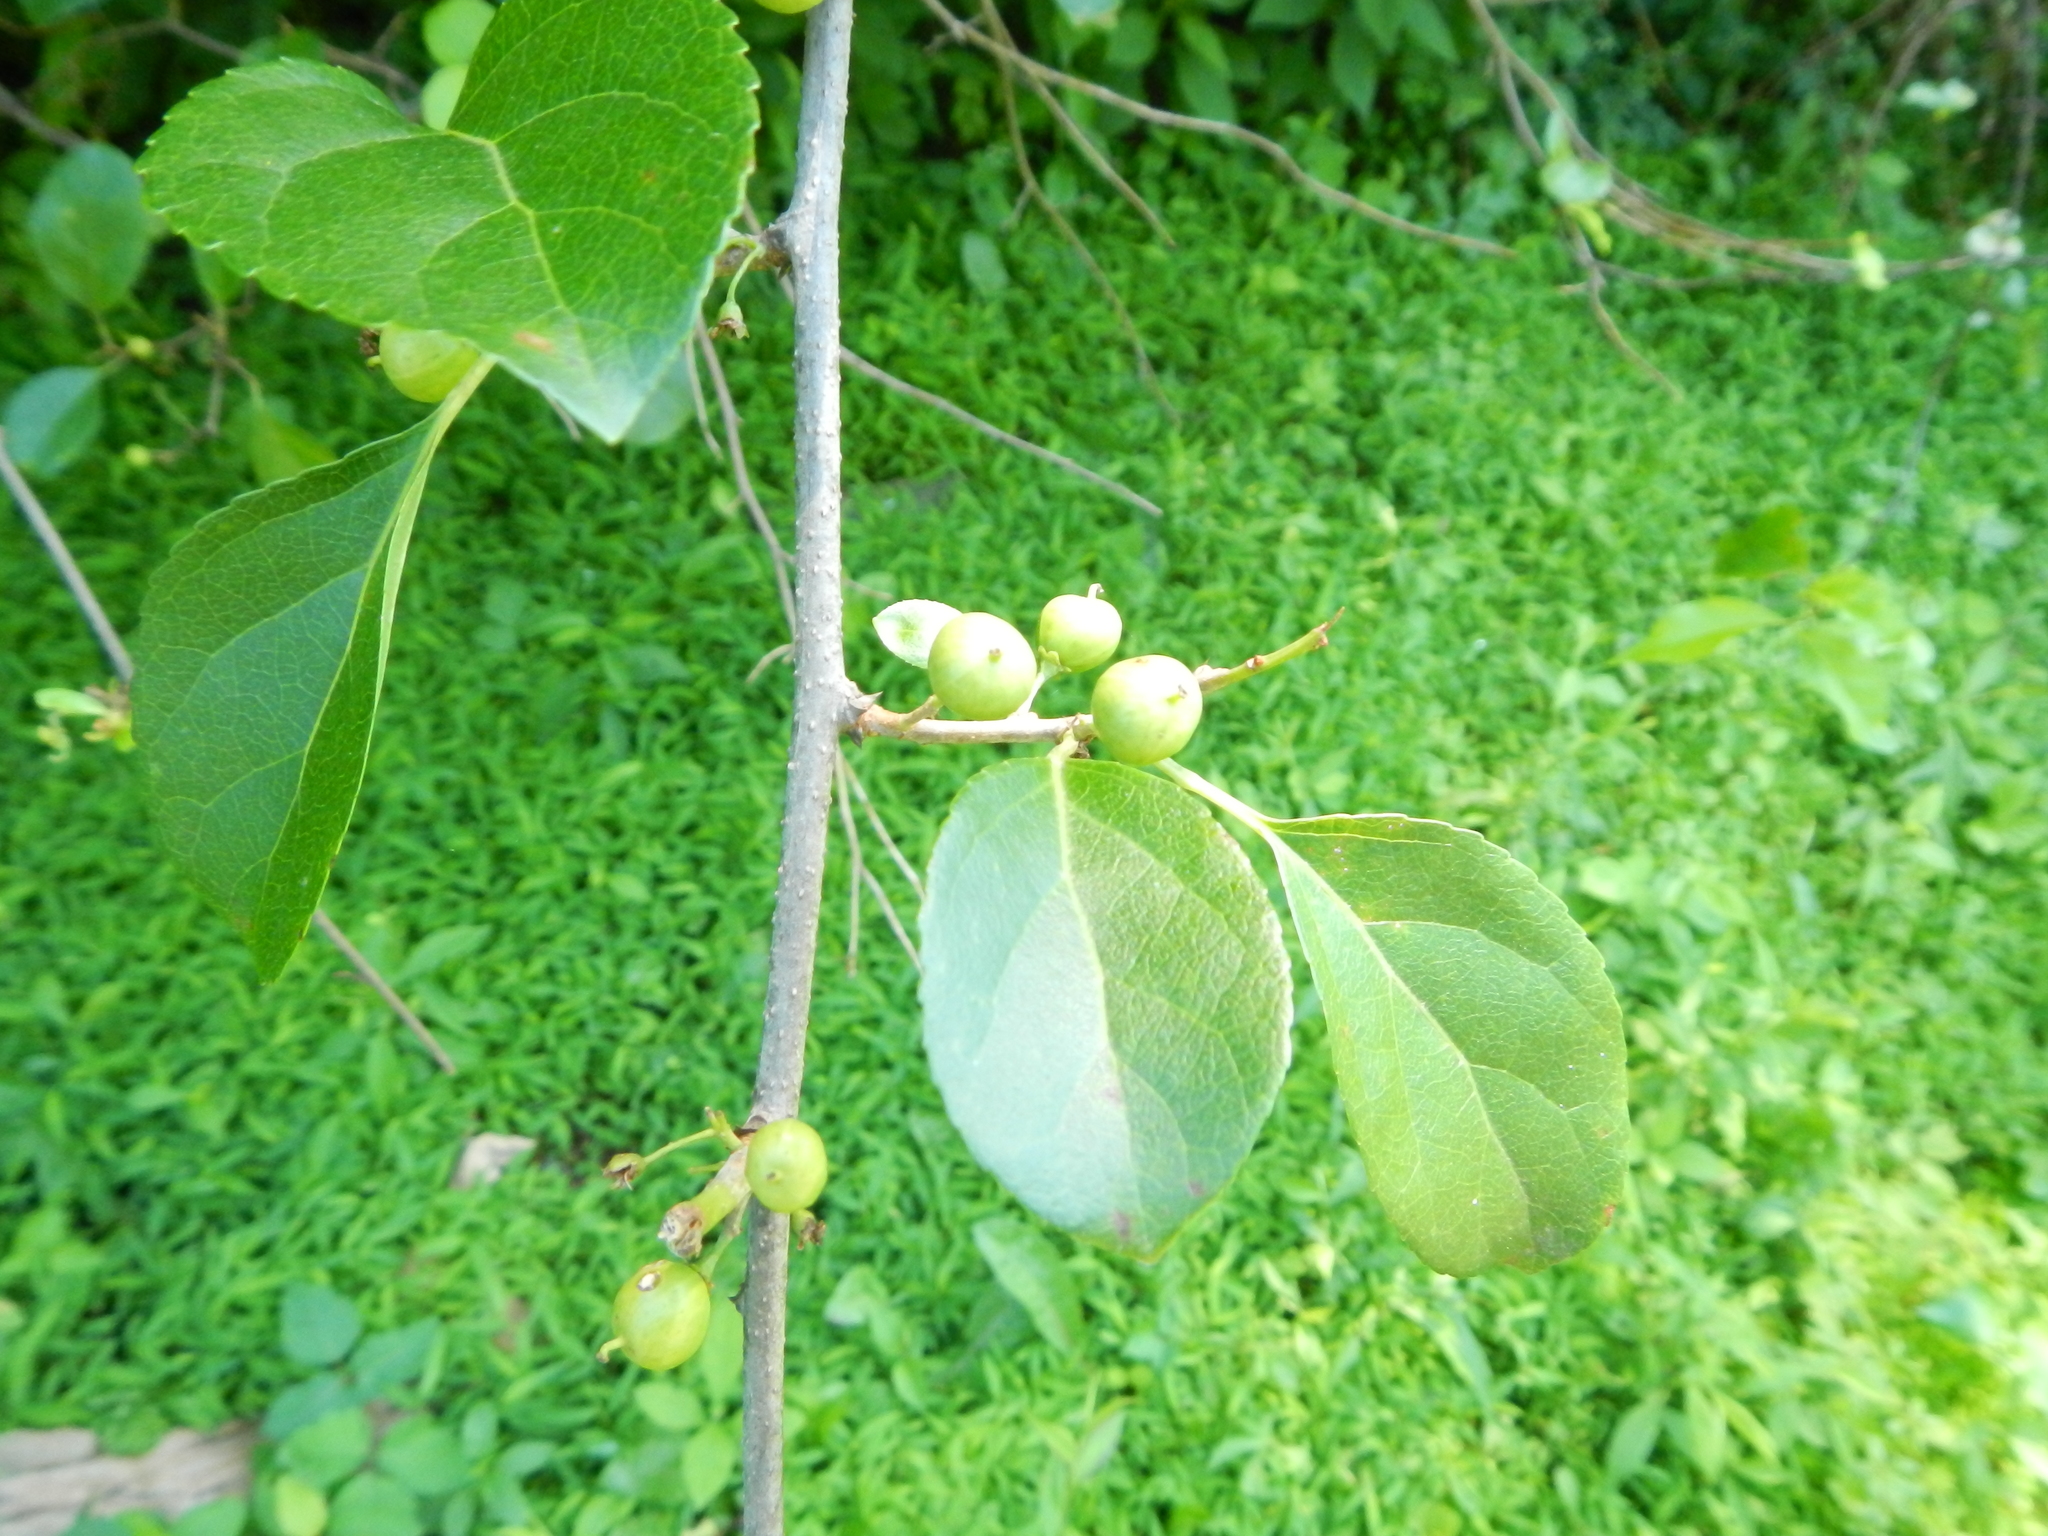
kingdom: Plantae
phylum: Tracheophyta
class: Magnoliopsida
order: Celastrales
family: Celastraceae
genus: Celastrus
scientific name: Celastrus orbiculatus
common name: Oriental bittersweet
